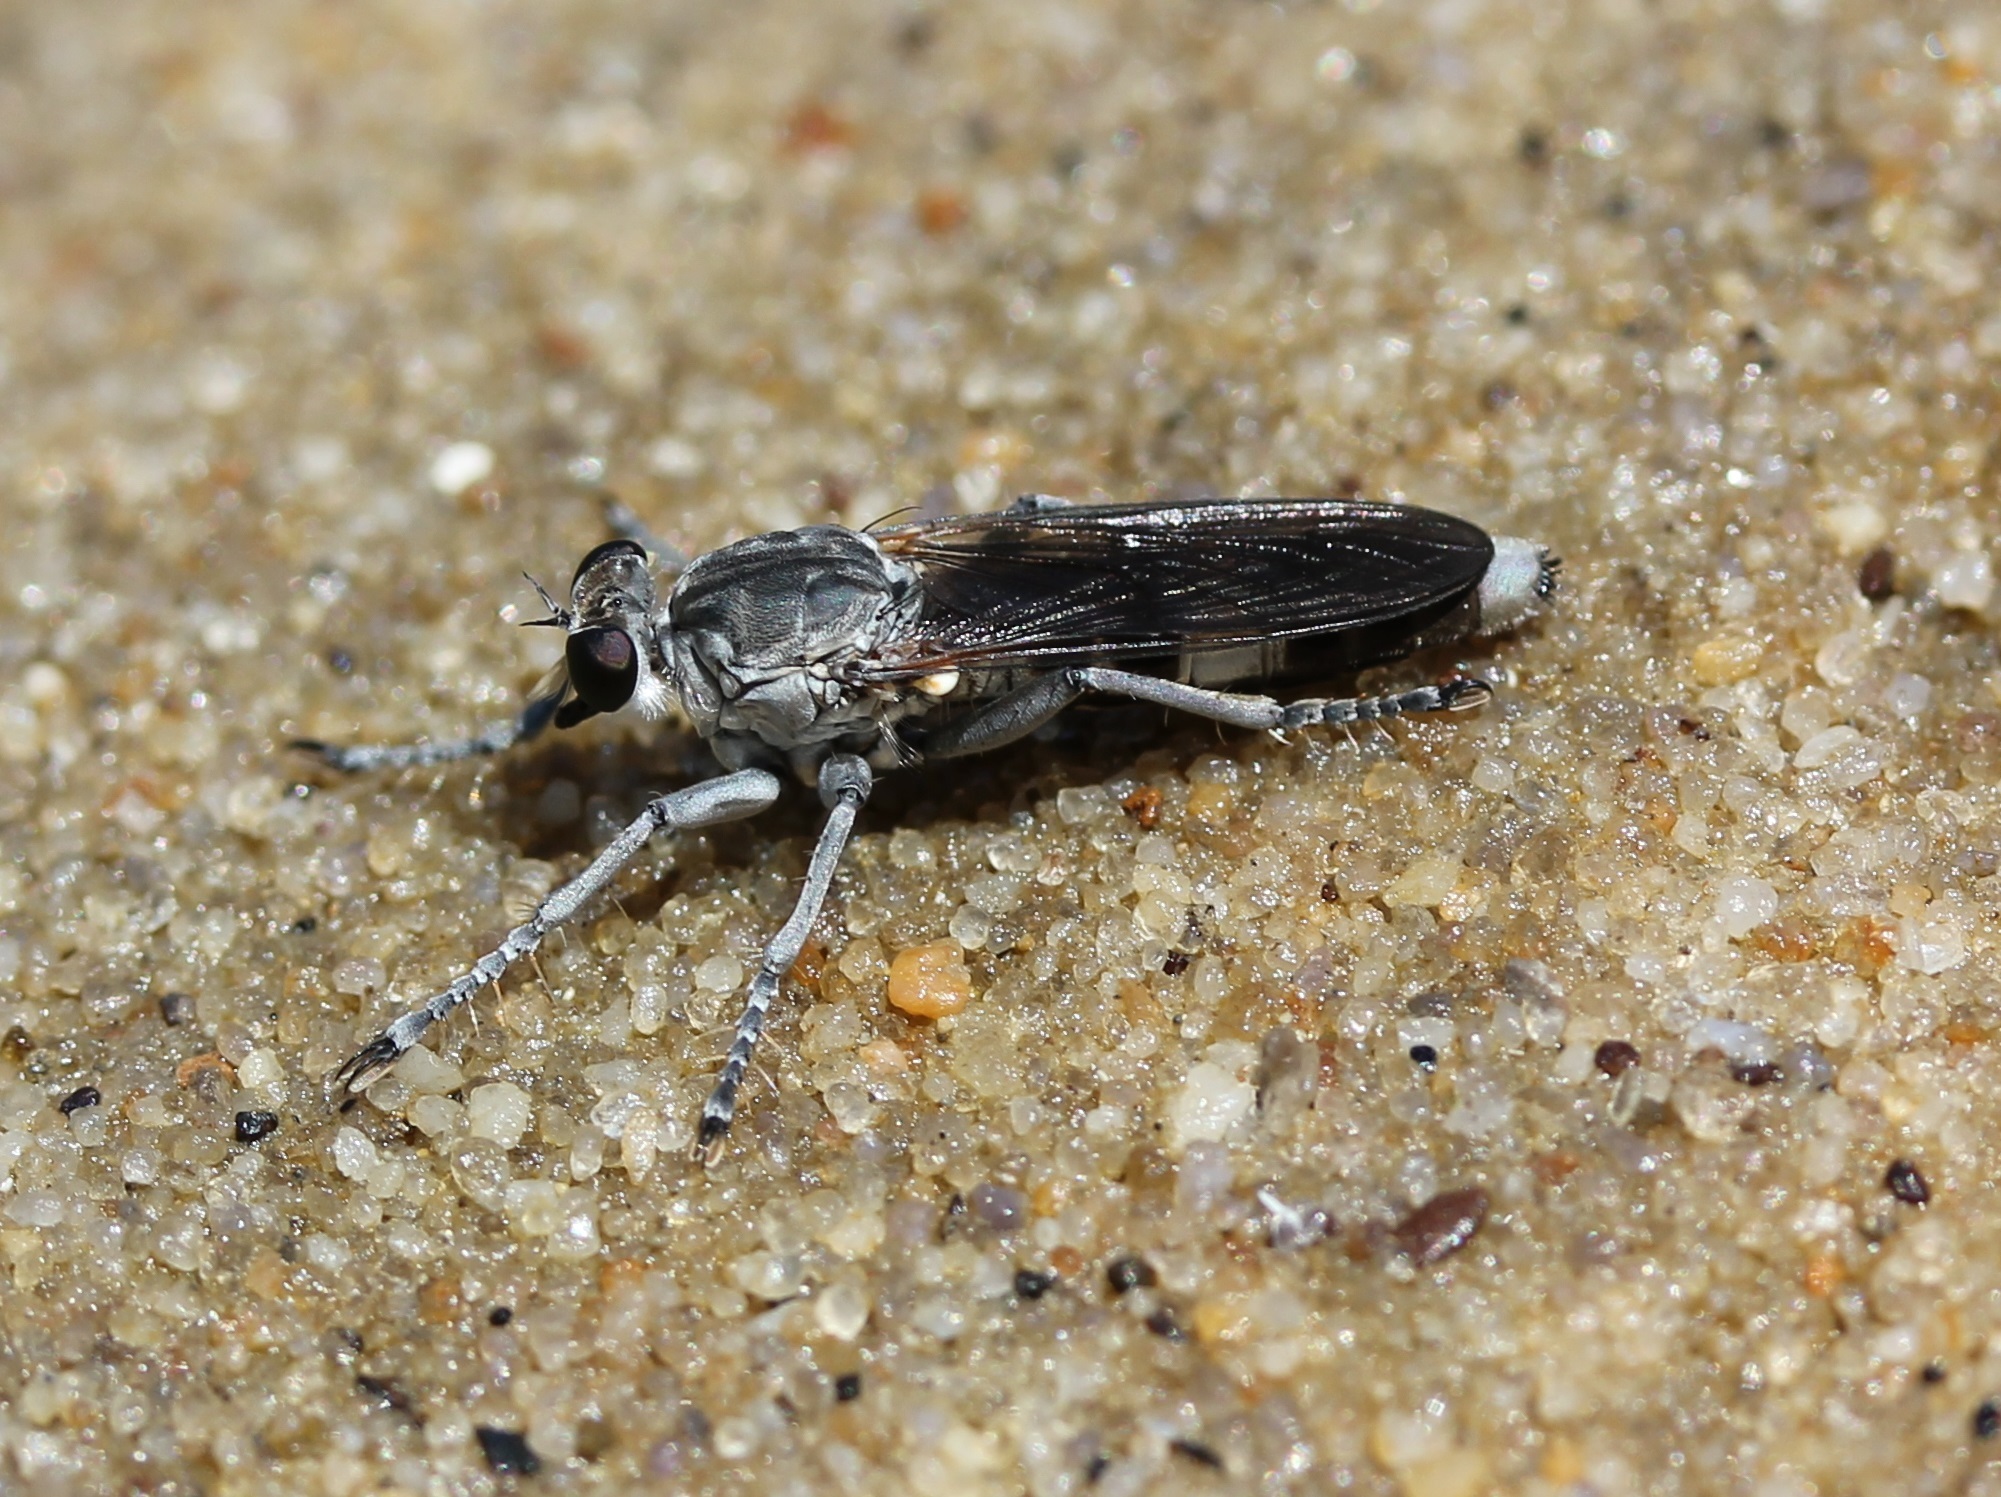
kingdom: Animalia
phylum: Arthropoda
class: Insecta
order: Diptera
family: Asilidae
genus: Stichopogon
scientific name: Stichopogon trifasciatus
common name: Three-banded robber fly
